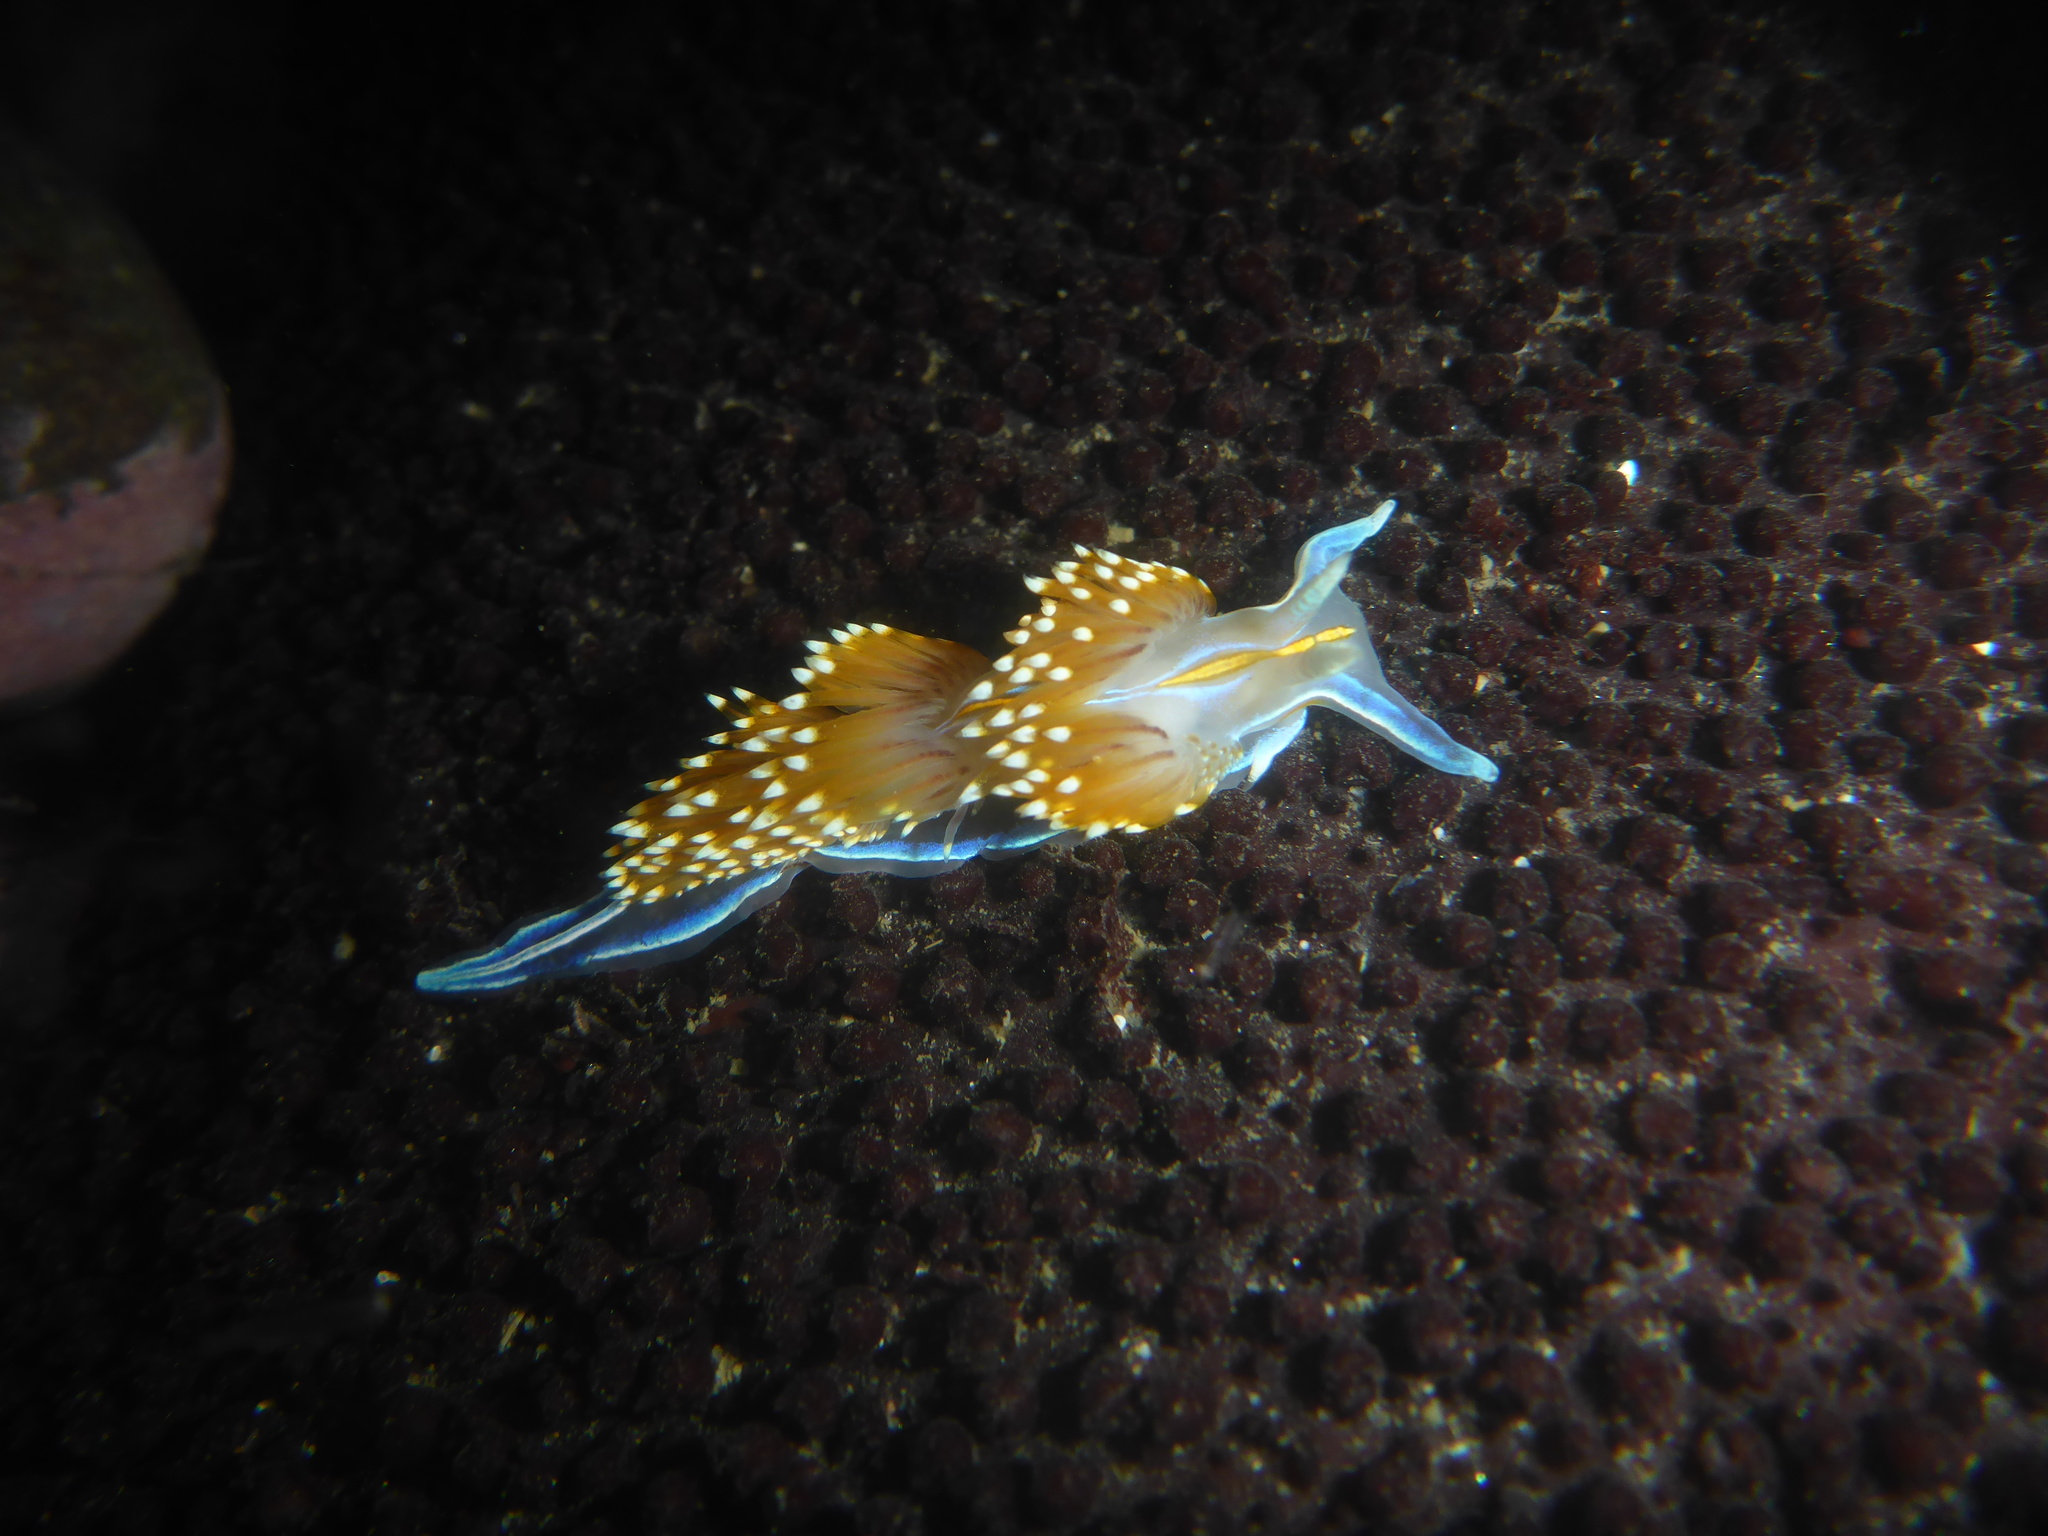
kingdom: Animalia
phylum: Mollusca
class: Gastropoda
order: Nudibranchia
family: Myrrhinidae
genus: Hermissenda
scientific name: Hermissenda opalescens
